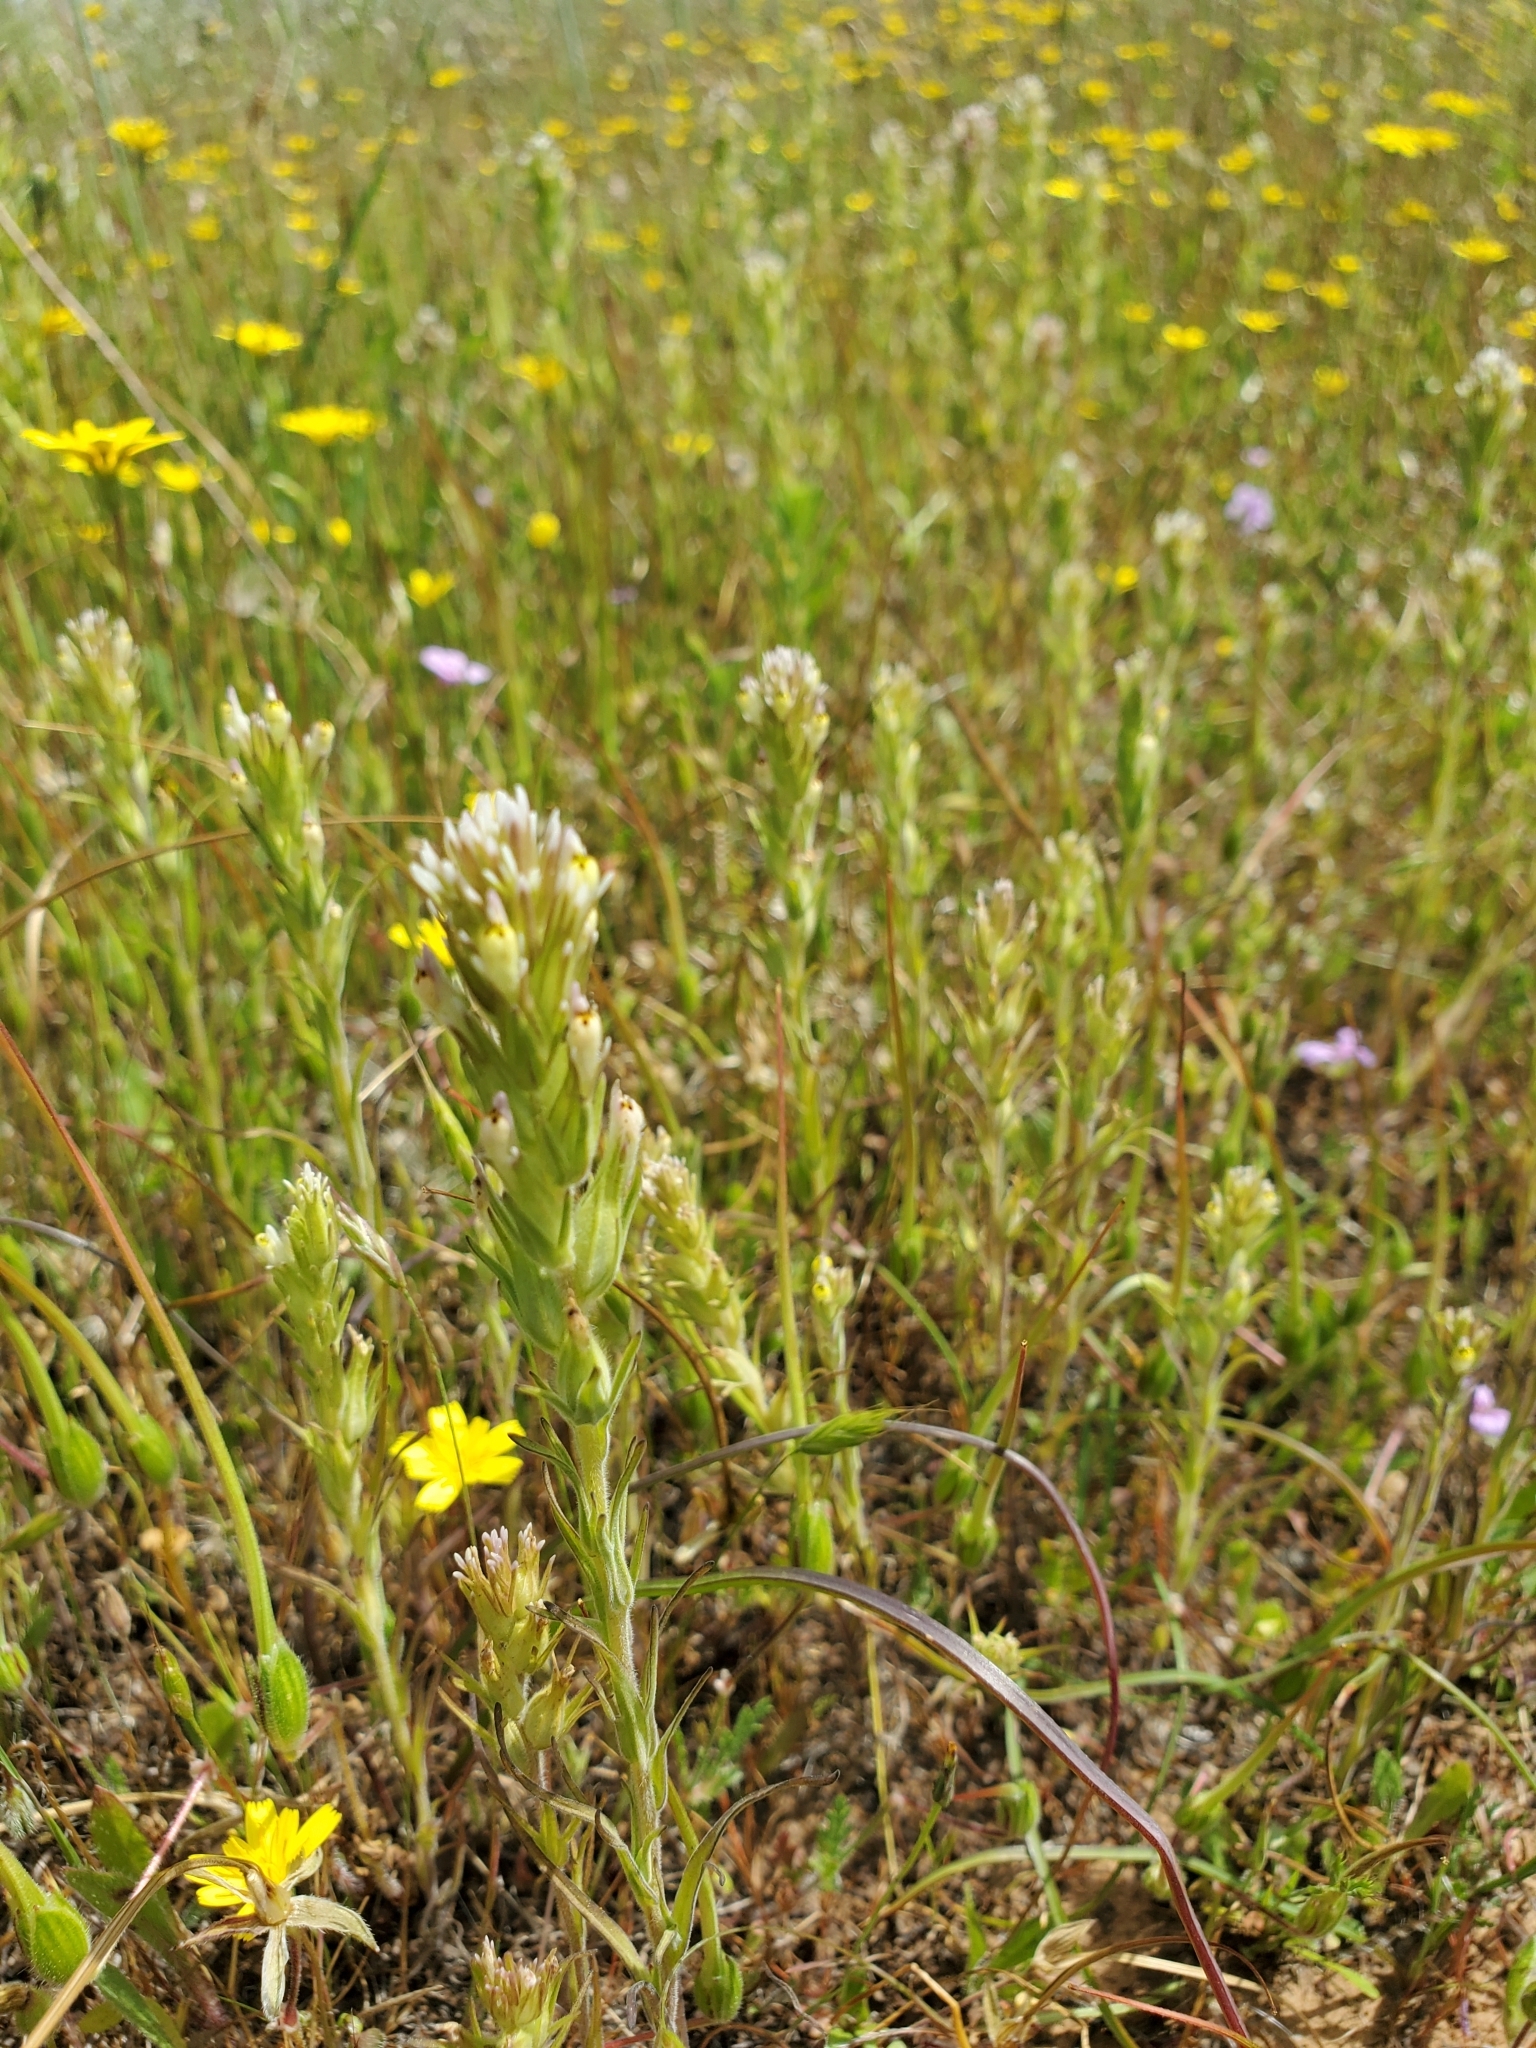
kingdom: Plantae
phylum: Tracheophyta
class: Magnoliopsida
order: Lamiales
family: Orobanchaceae
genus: Castilleja
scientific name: Castilleja attenuata
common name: Valley tassels
